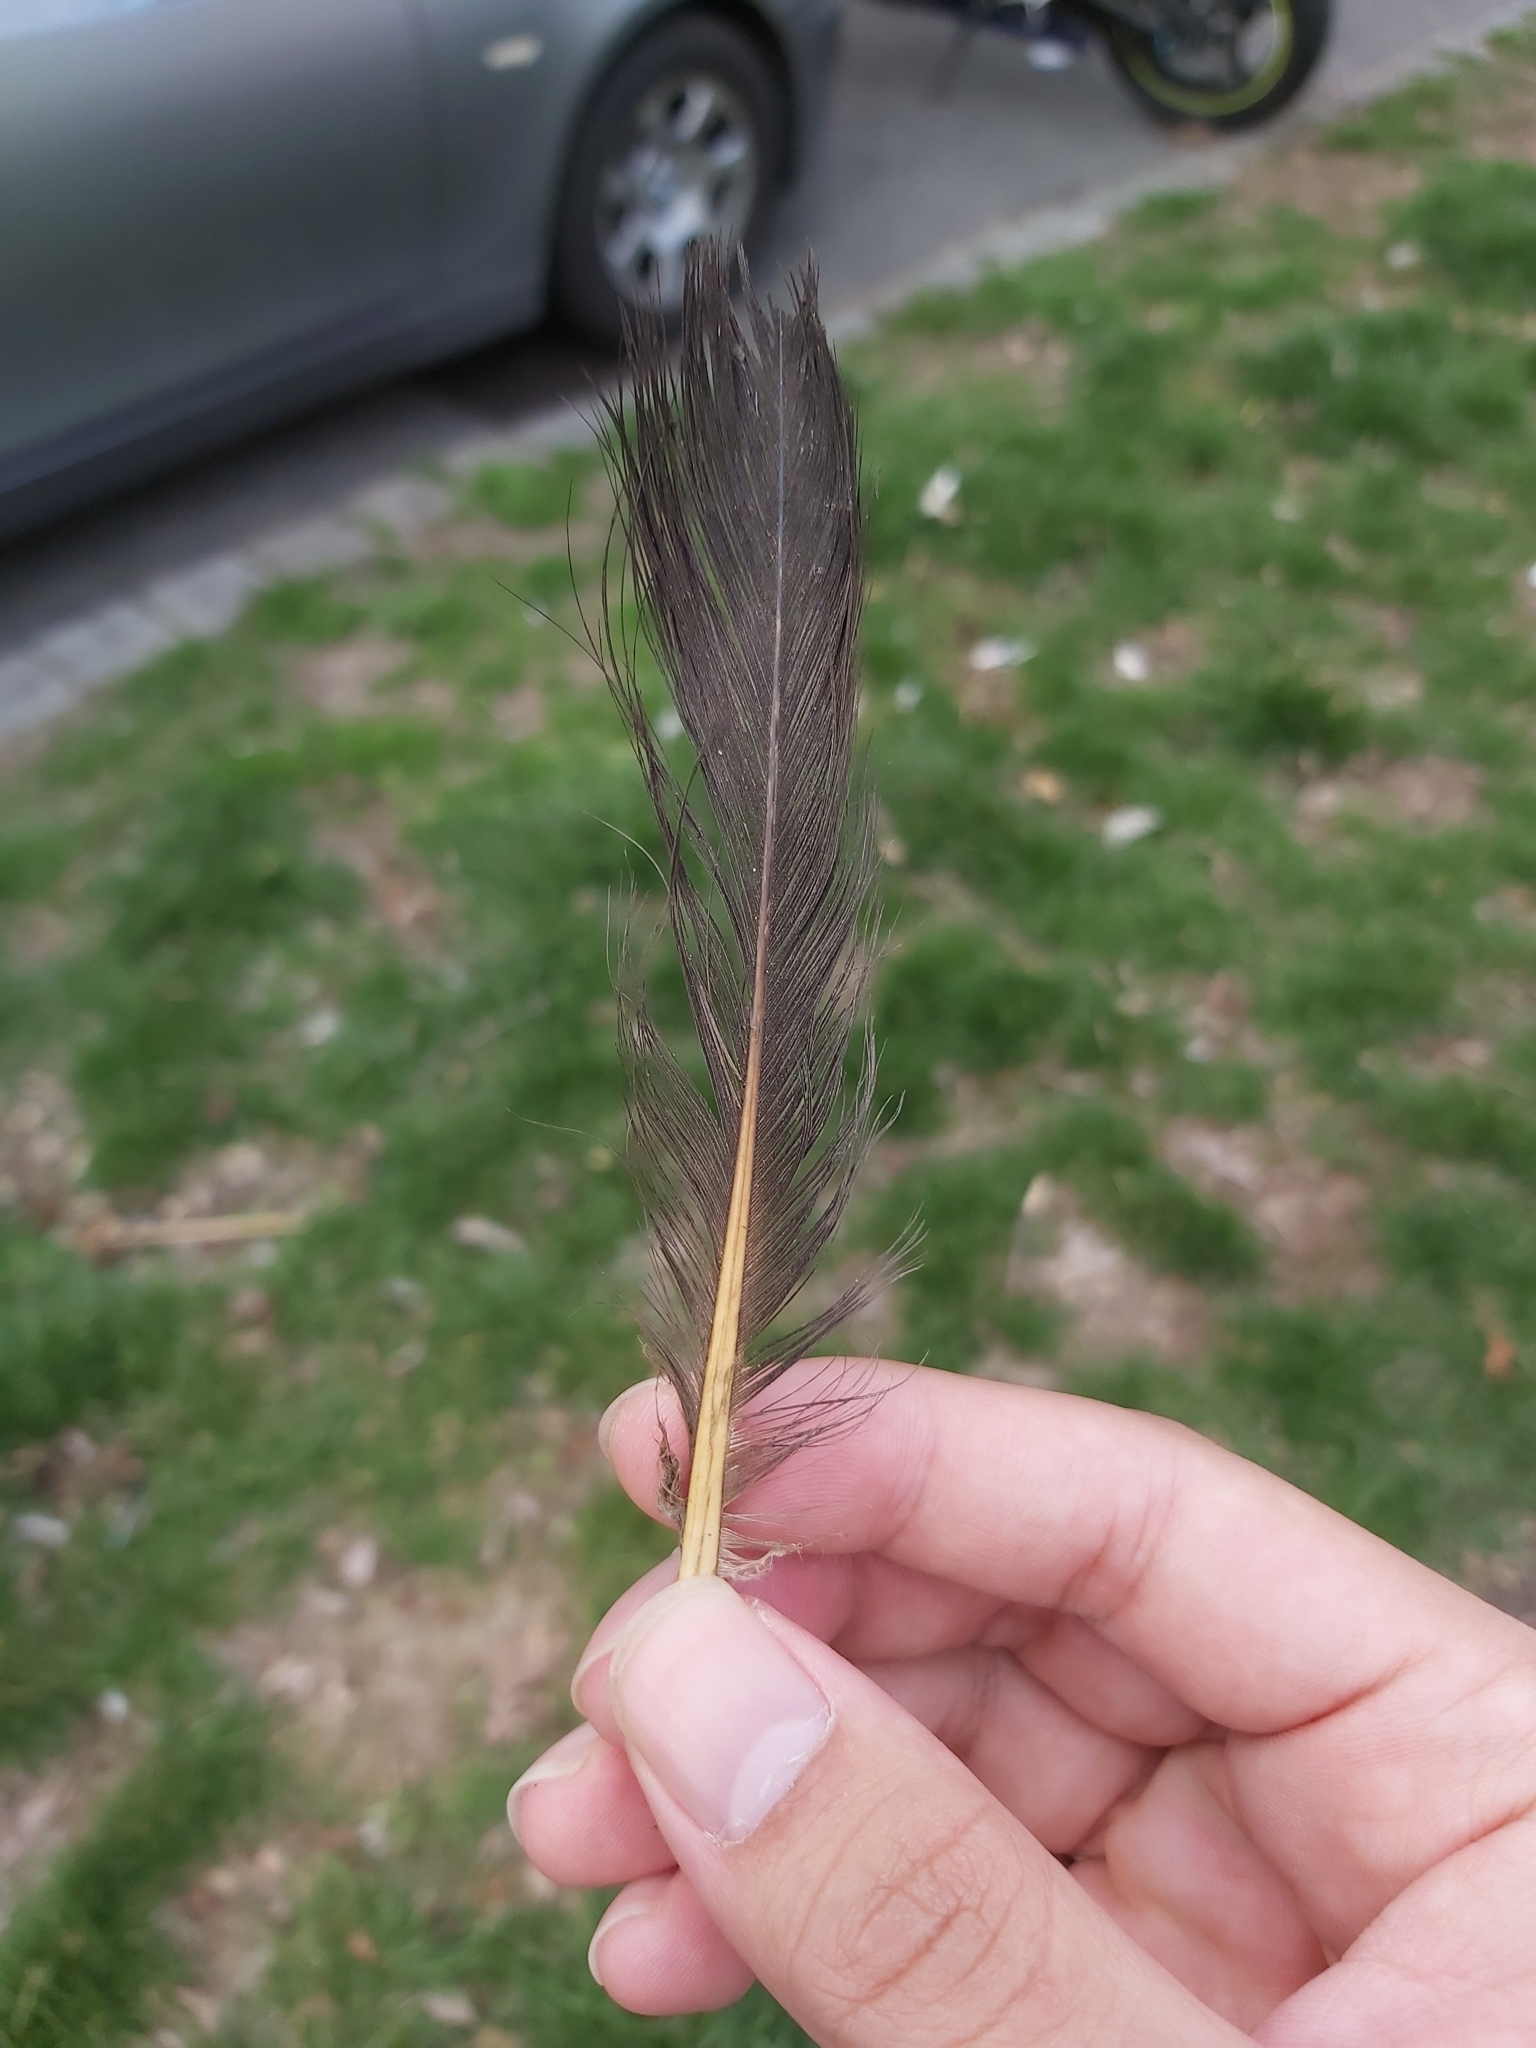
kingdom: Animalia
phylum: Chordata
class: Aves
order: Columbiformes
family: Columbidae
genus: Columba
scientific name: Columba livia
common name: Rock pigeon
